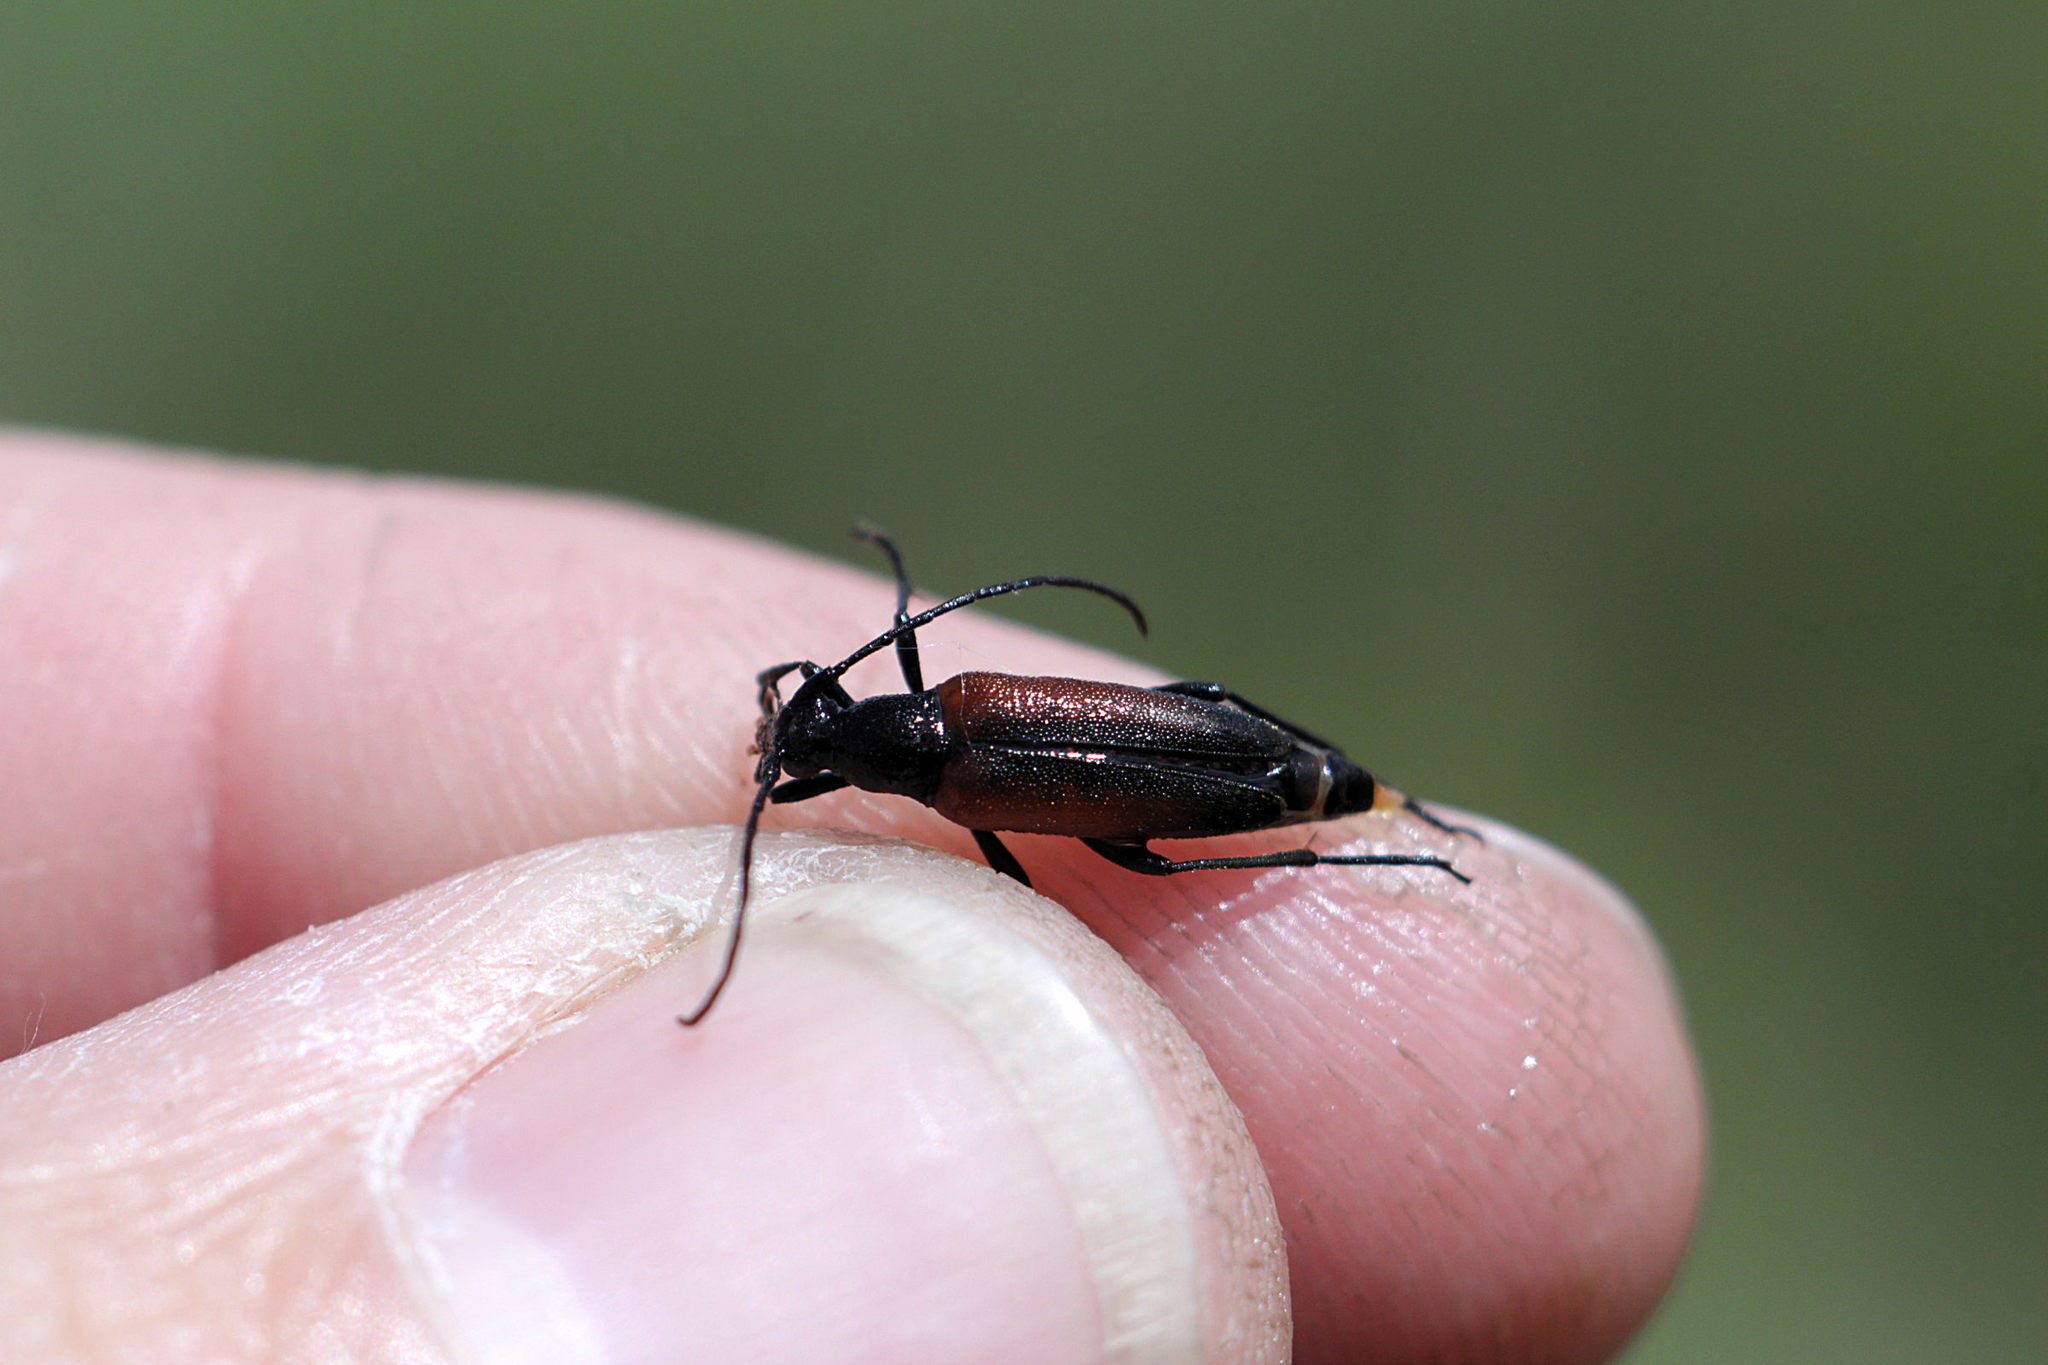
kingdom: Animalia
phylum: Arthropoda
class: Insecta
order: Coleoptera
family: Cerambycidae
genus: Stenurella
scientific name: Stenurella melanura
